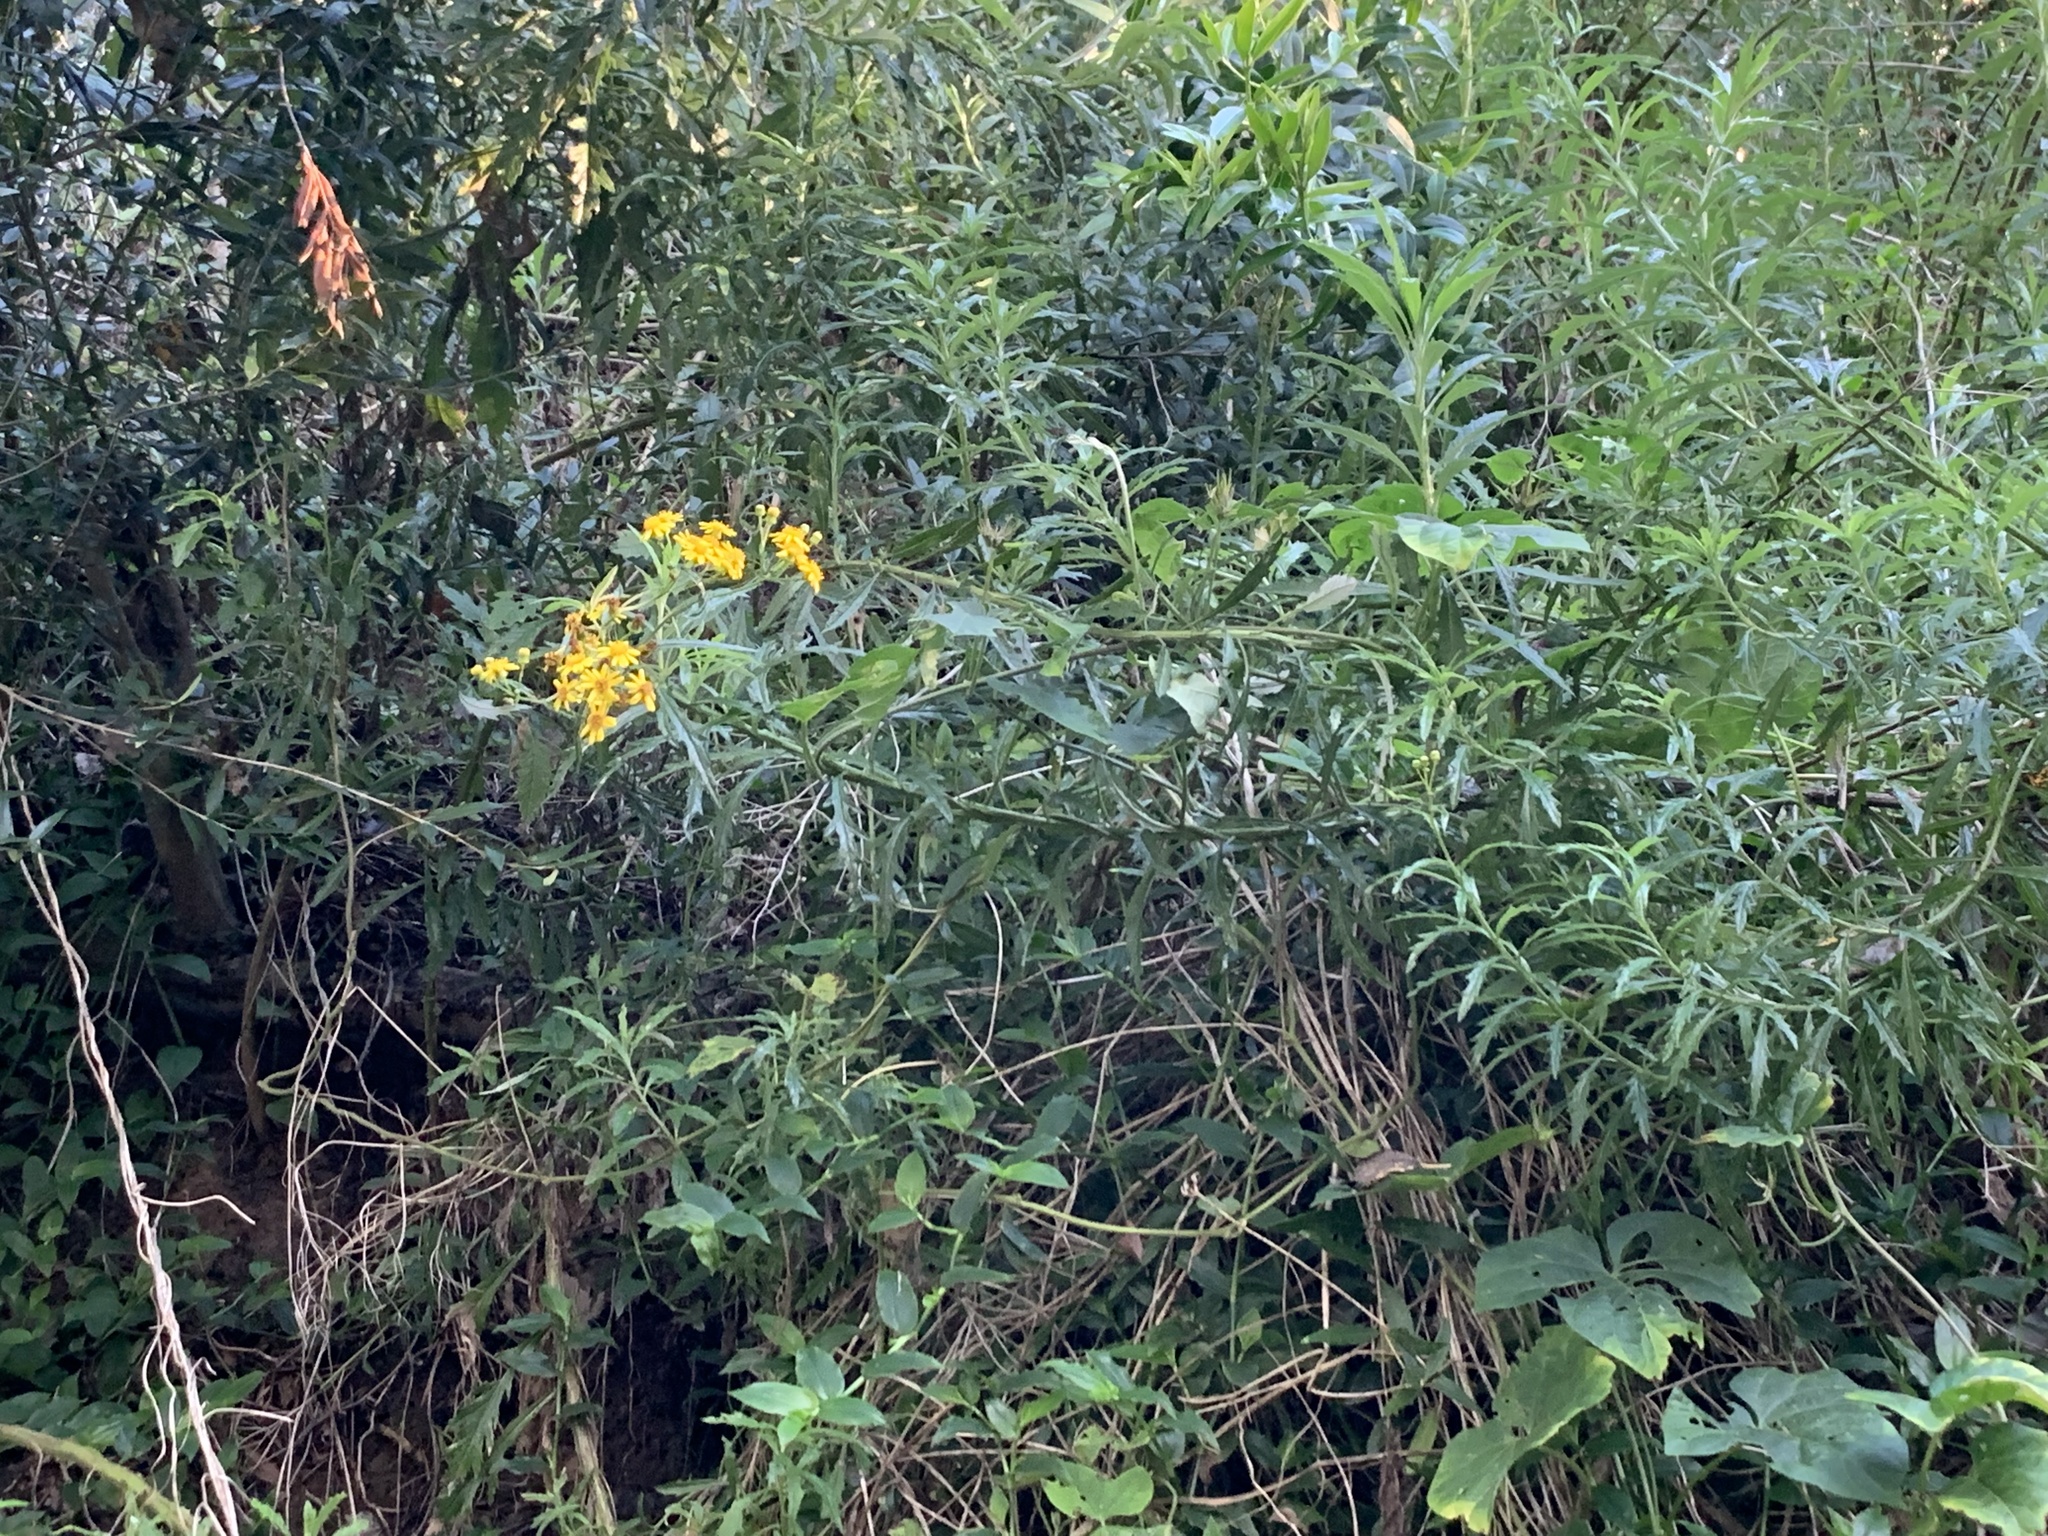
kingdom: Plantae
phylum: Tracheophyta
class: Magnoliopsida
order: Asterales
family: Asteraceae
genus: Senecio
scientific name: Senecio pterophorus
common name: Shoddy ragwort
